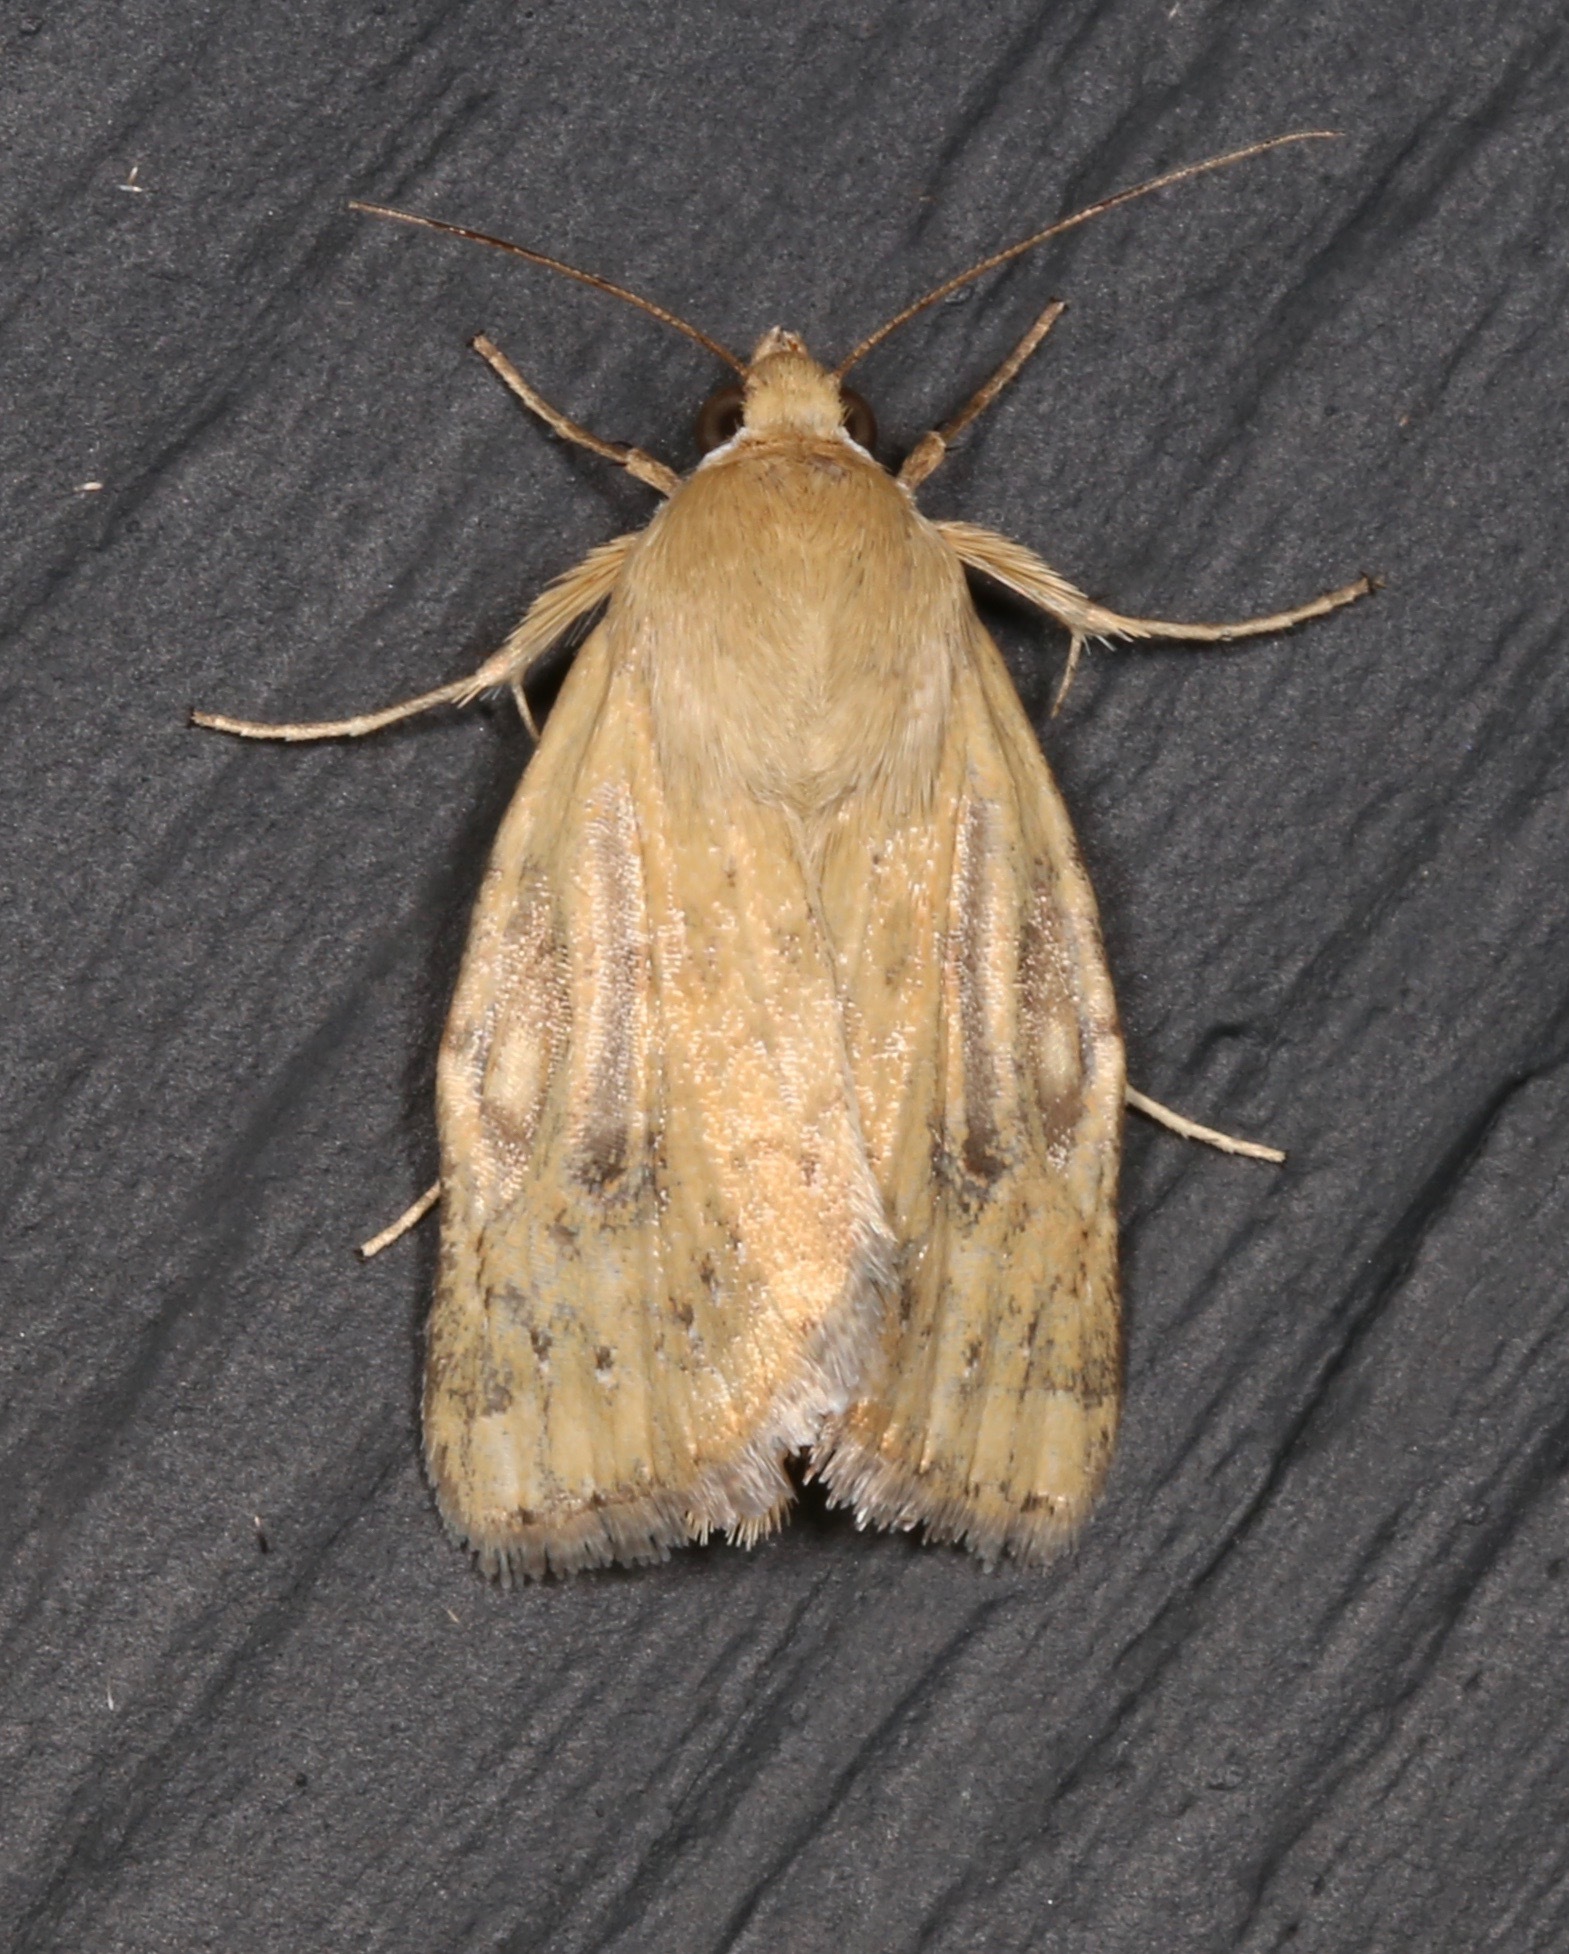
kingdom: Animalia
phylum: Arthropoda
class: Insecta
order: Lepidoptera
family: Noctuidae
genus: Heliocheilus
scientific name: Heliocheilus paradoxus
